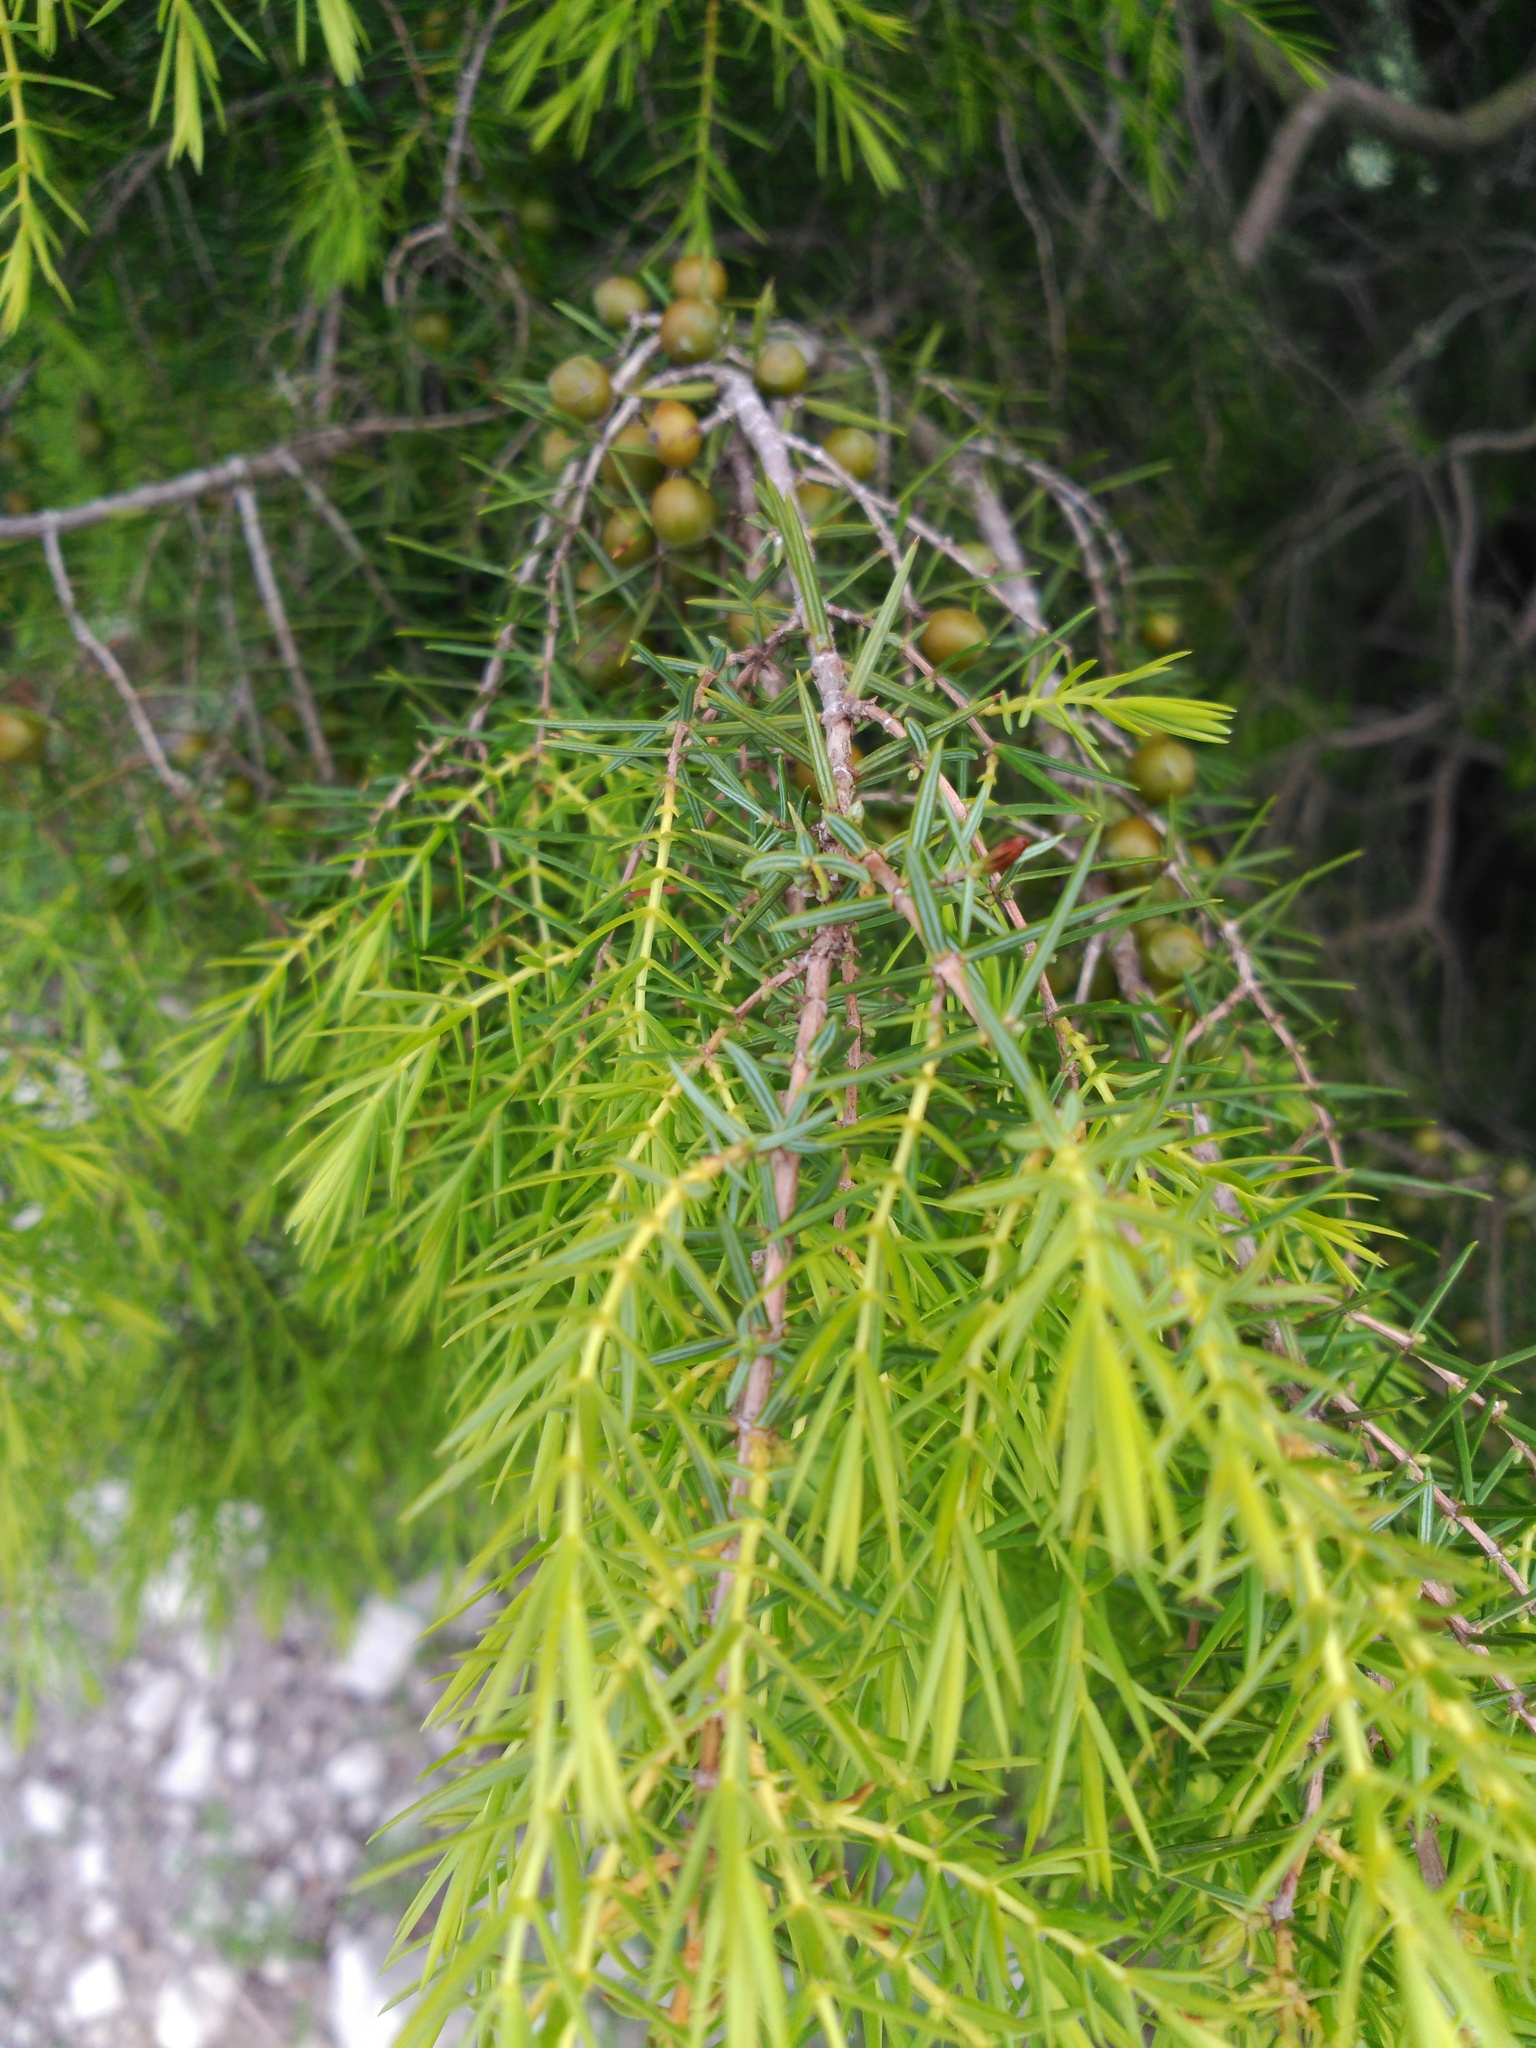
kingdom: Plantae
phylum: Tracheophyta
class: Pinopsida
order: Pinales
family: Cupressaceae
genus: Juniperus
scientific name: Juniperus oxycedrus
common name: Prickly juniper
